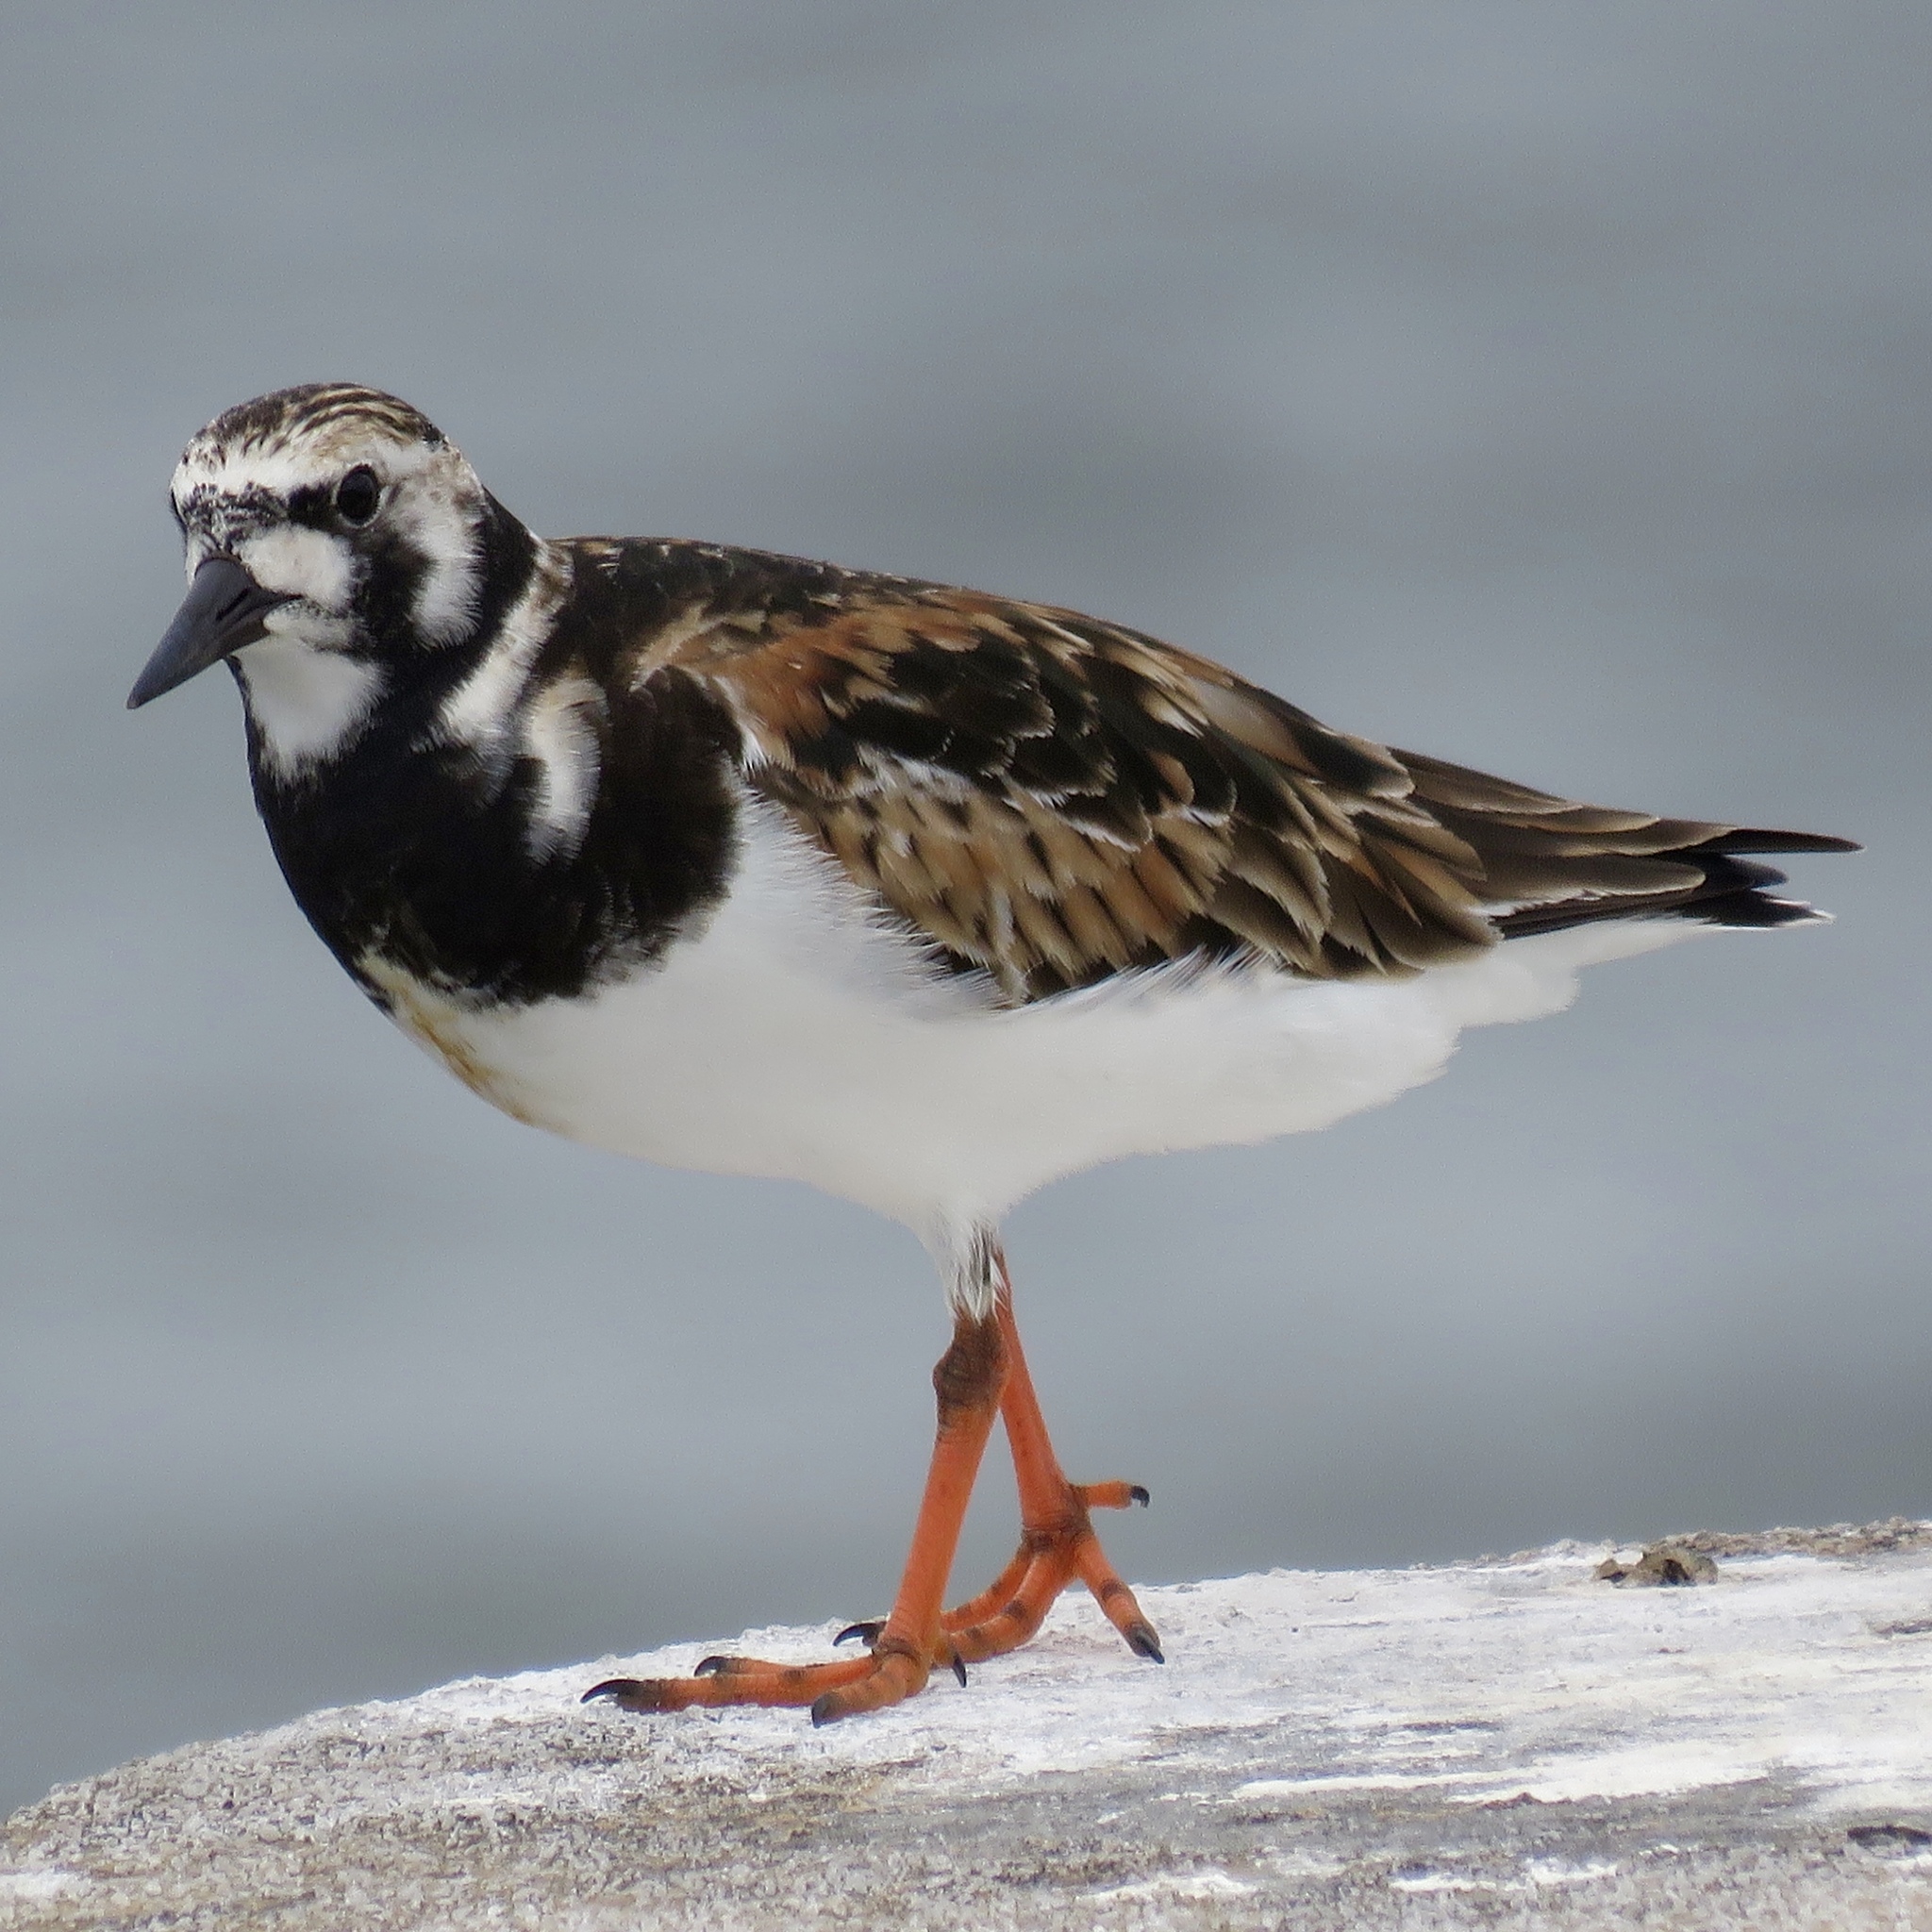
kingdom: Animalia
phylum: Chordata
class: Aves
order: Charadriiformes
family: Scolopacidae
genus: Arenaria
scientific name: Arenaria interpres
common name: Ruddy turnstone
